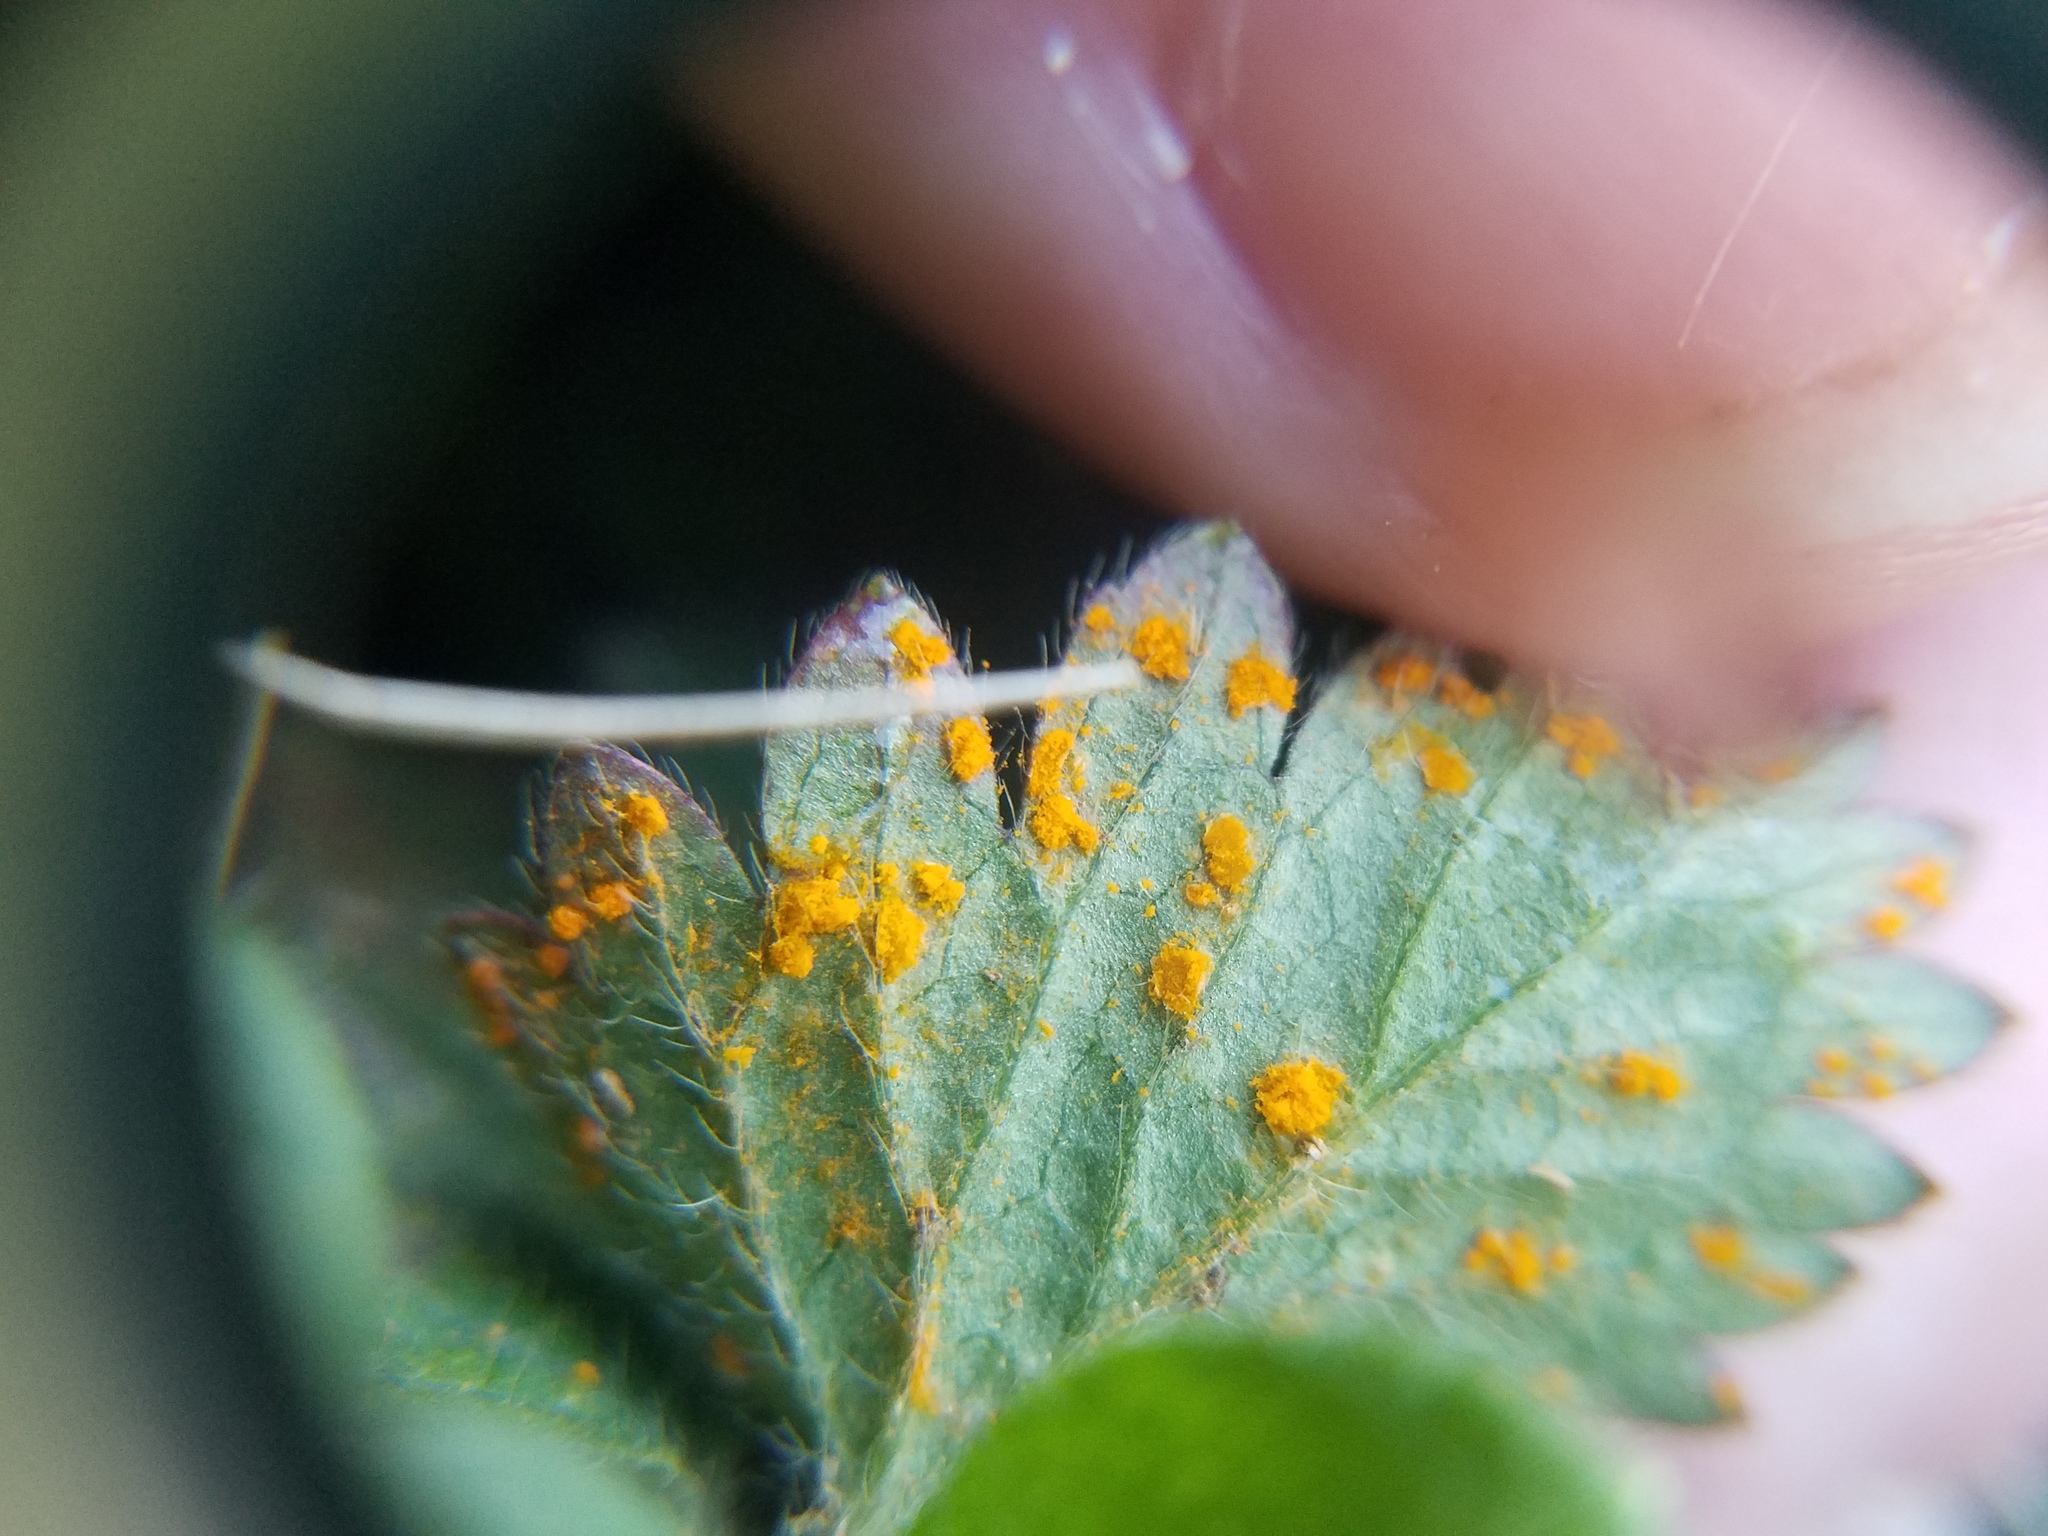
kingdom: Fungi
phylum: Basidiomycota
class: Pucciniomycetes
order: Pucciniales
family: Phragmidiaceae
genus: Phragmidium
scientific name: Phragmidium mexicanum
